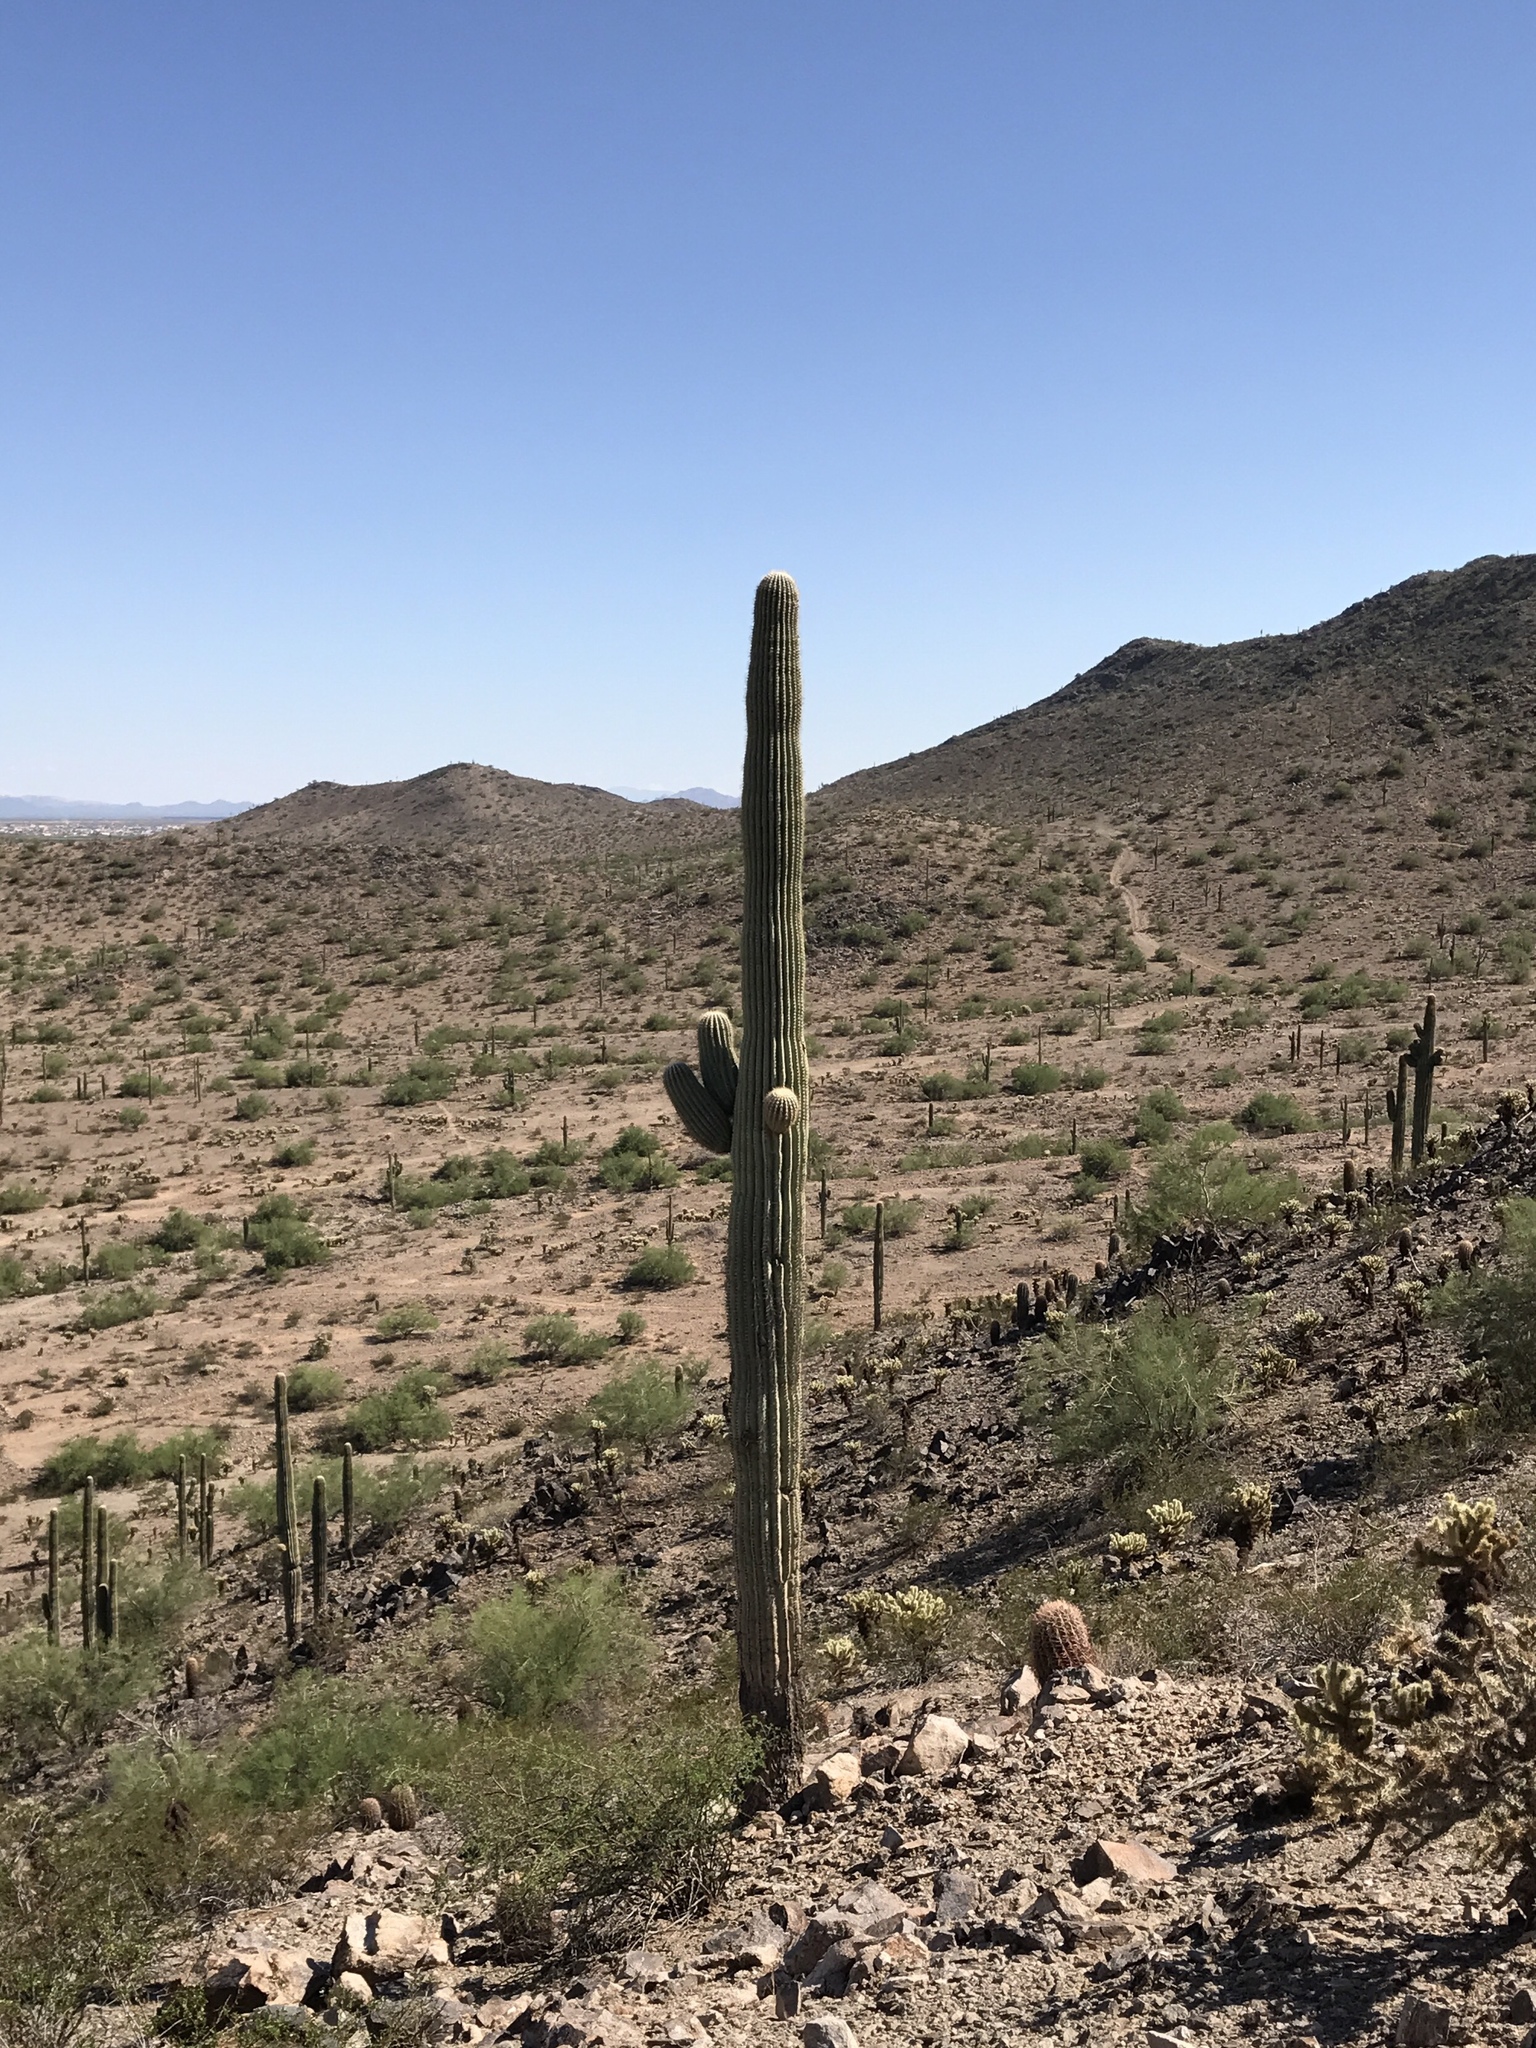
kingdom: Plantae
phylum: Tracheophyta
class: Magnoliopsida
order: Caryophyllales
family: Cactaceae
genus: Carnegiea
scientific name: Carnegiea gigantea
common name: Saguaro
